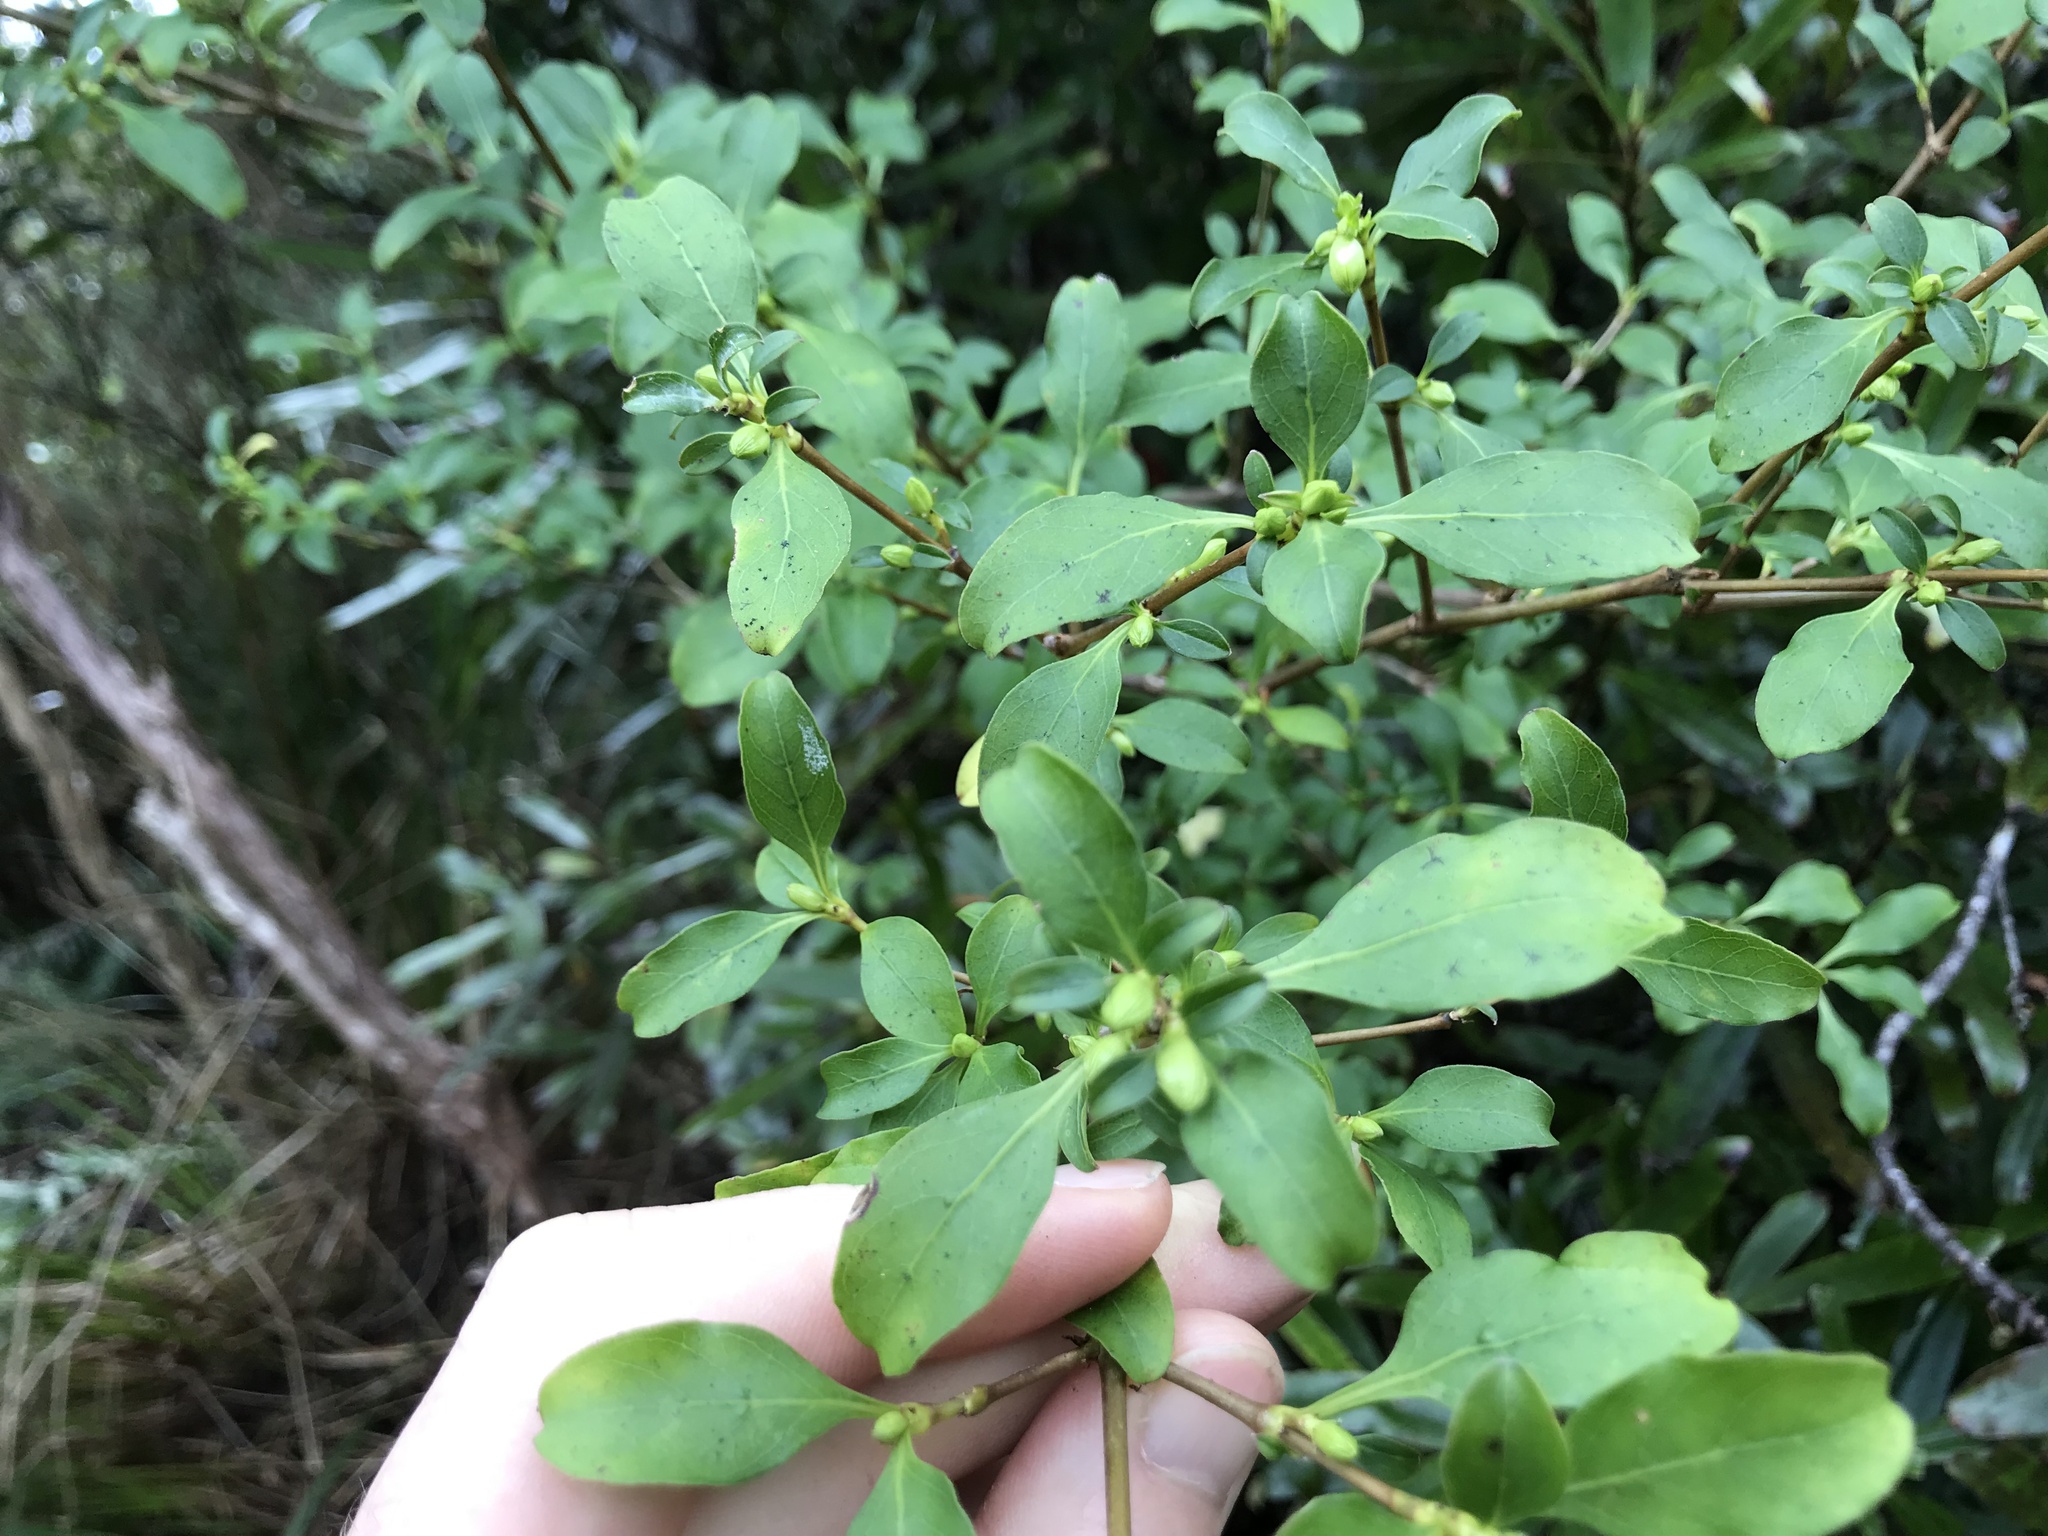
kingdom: Plantae
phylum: Tracheophyta
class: Magnoliopsida
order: Gentianales
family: Rubiaceae
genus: Coprosma
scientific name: Coprosma foetidissima
